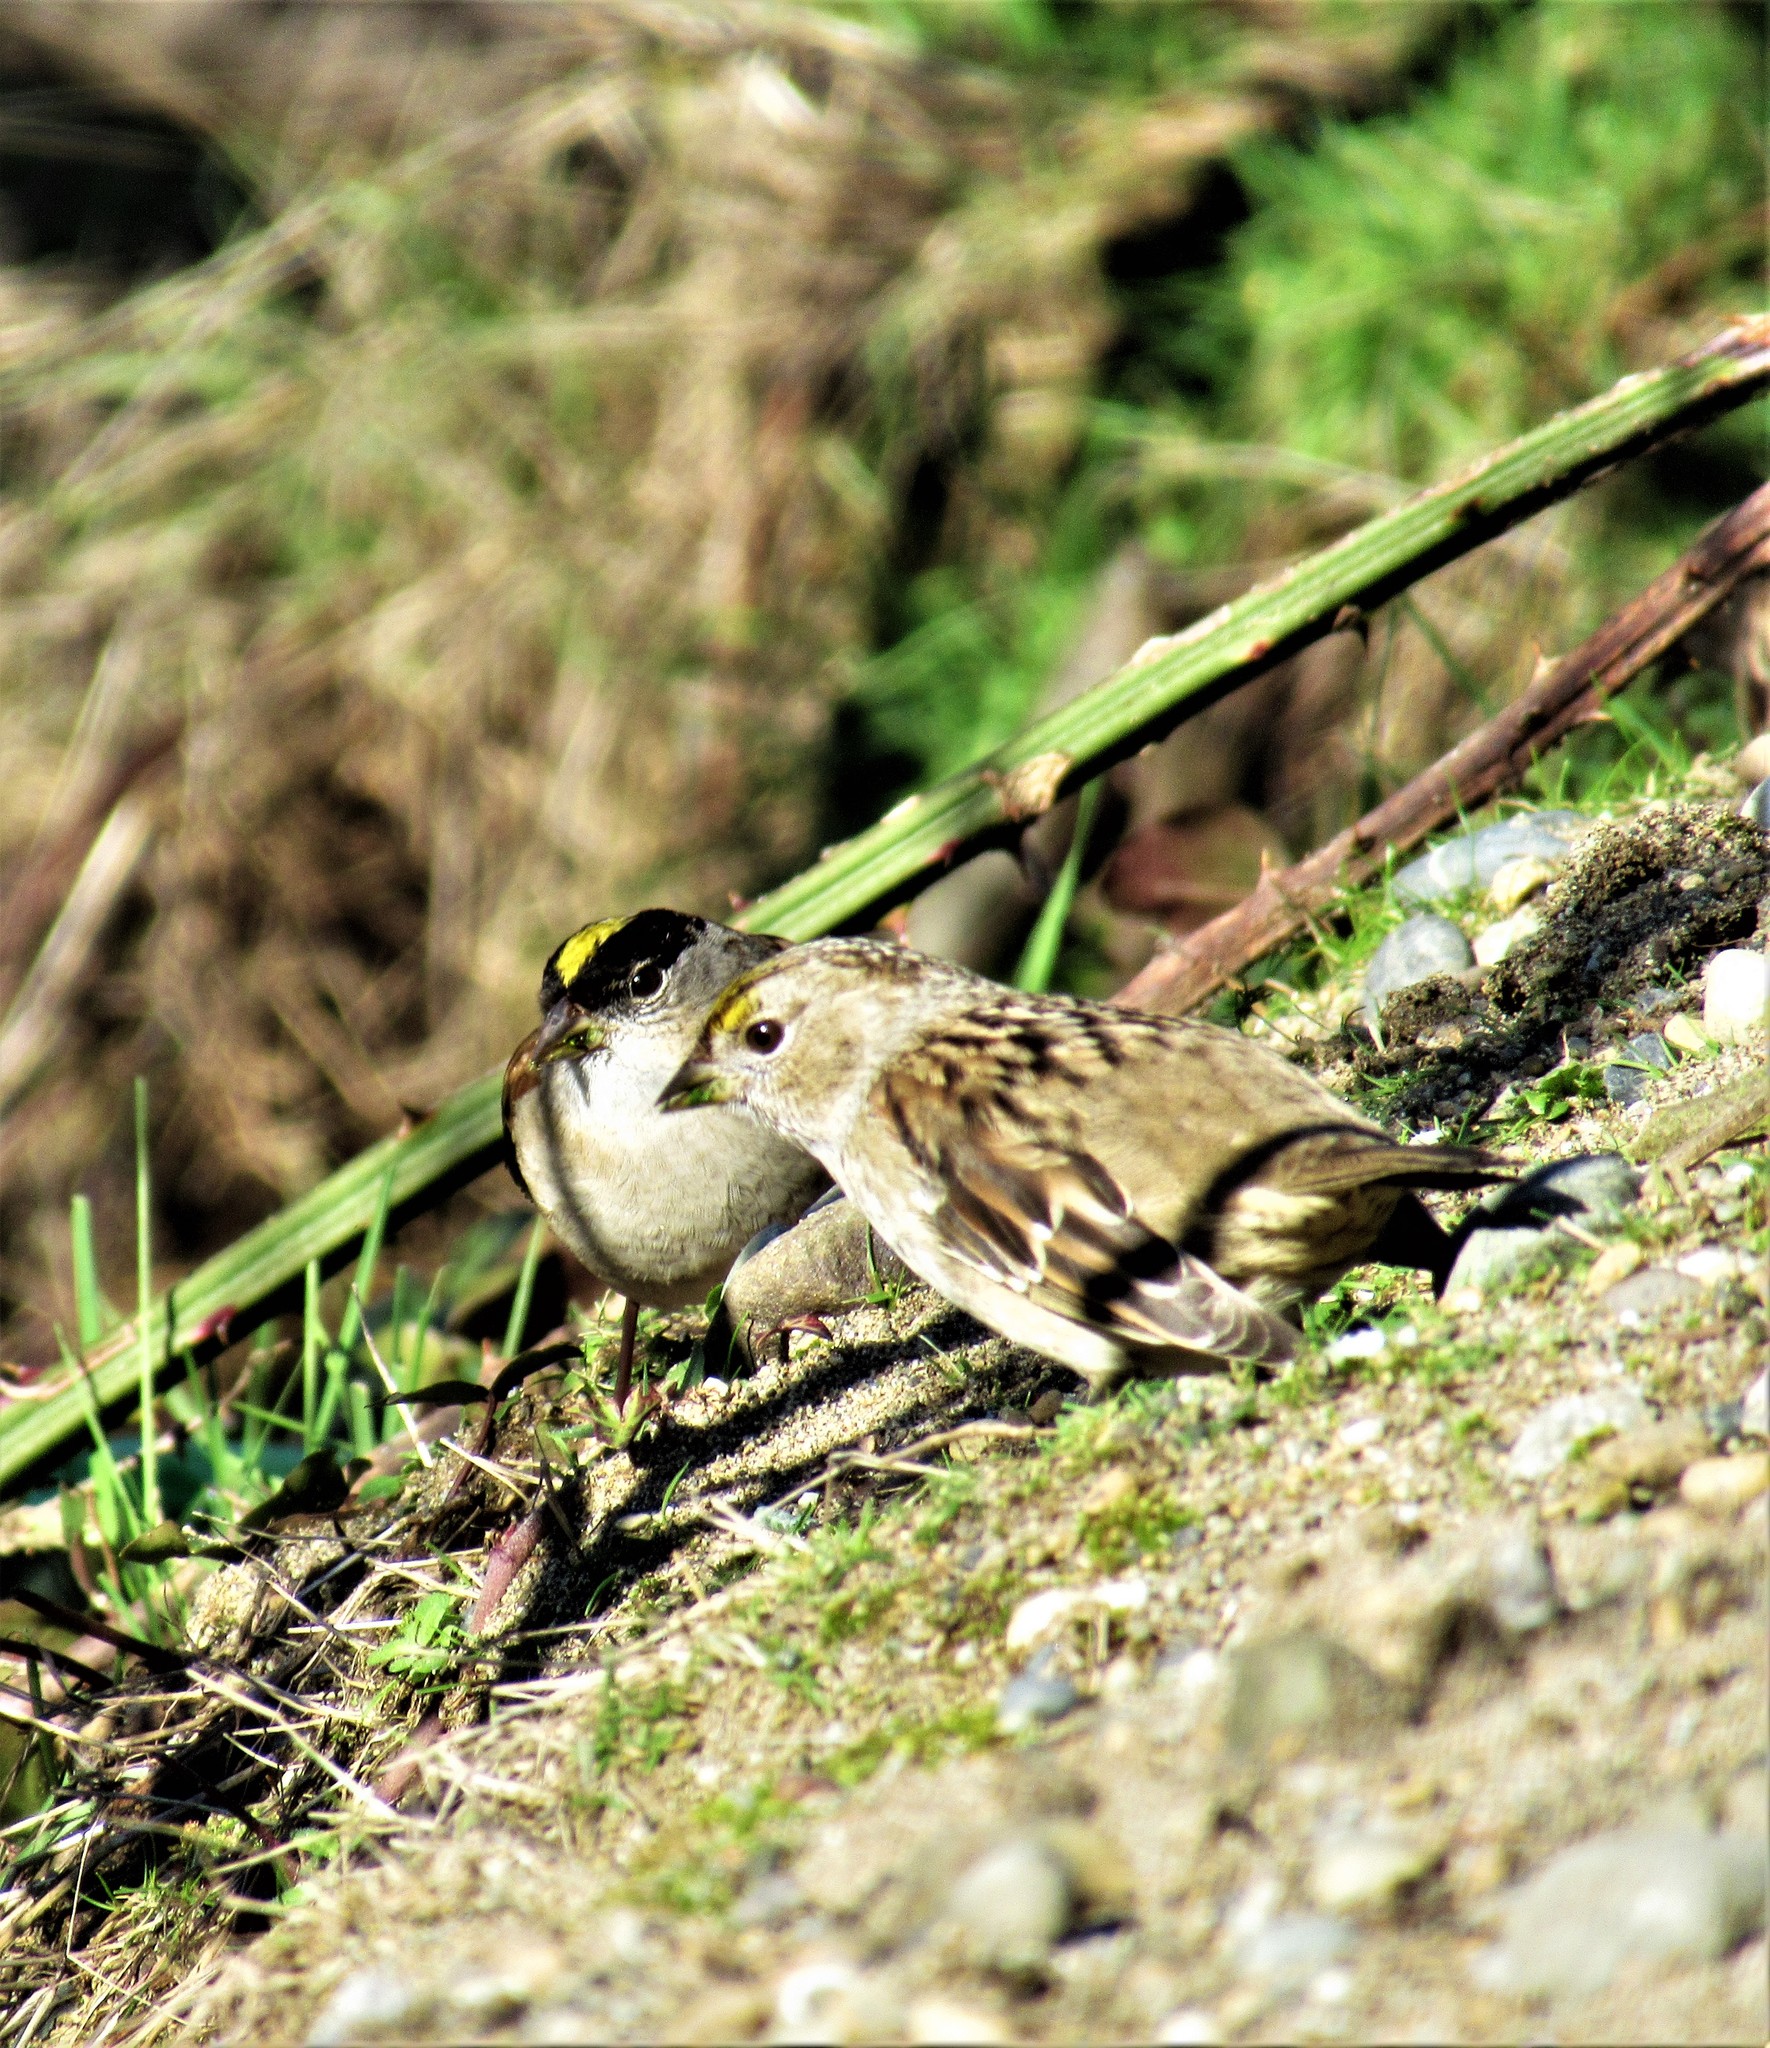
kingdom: Animalia
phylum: Chordata
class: Aves
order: Passeriformes
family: Passerellidae
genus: Zonotrichia
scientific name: Zonotrichia atricapilla
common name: Golden-crowned sparrow
